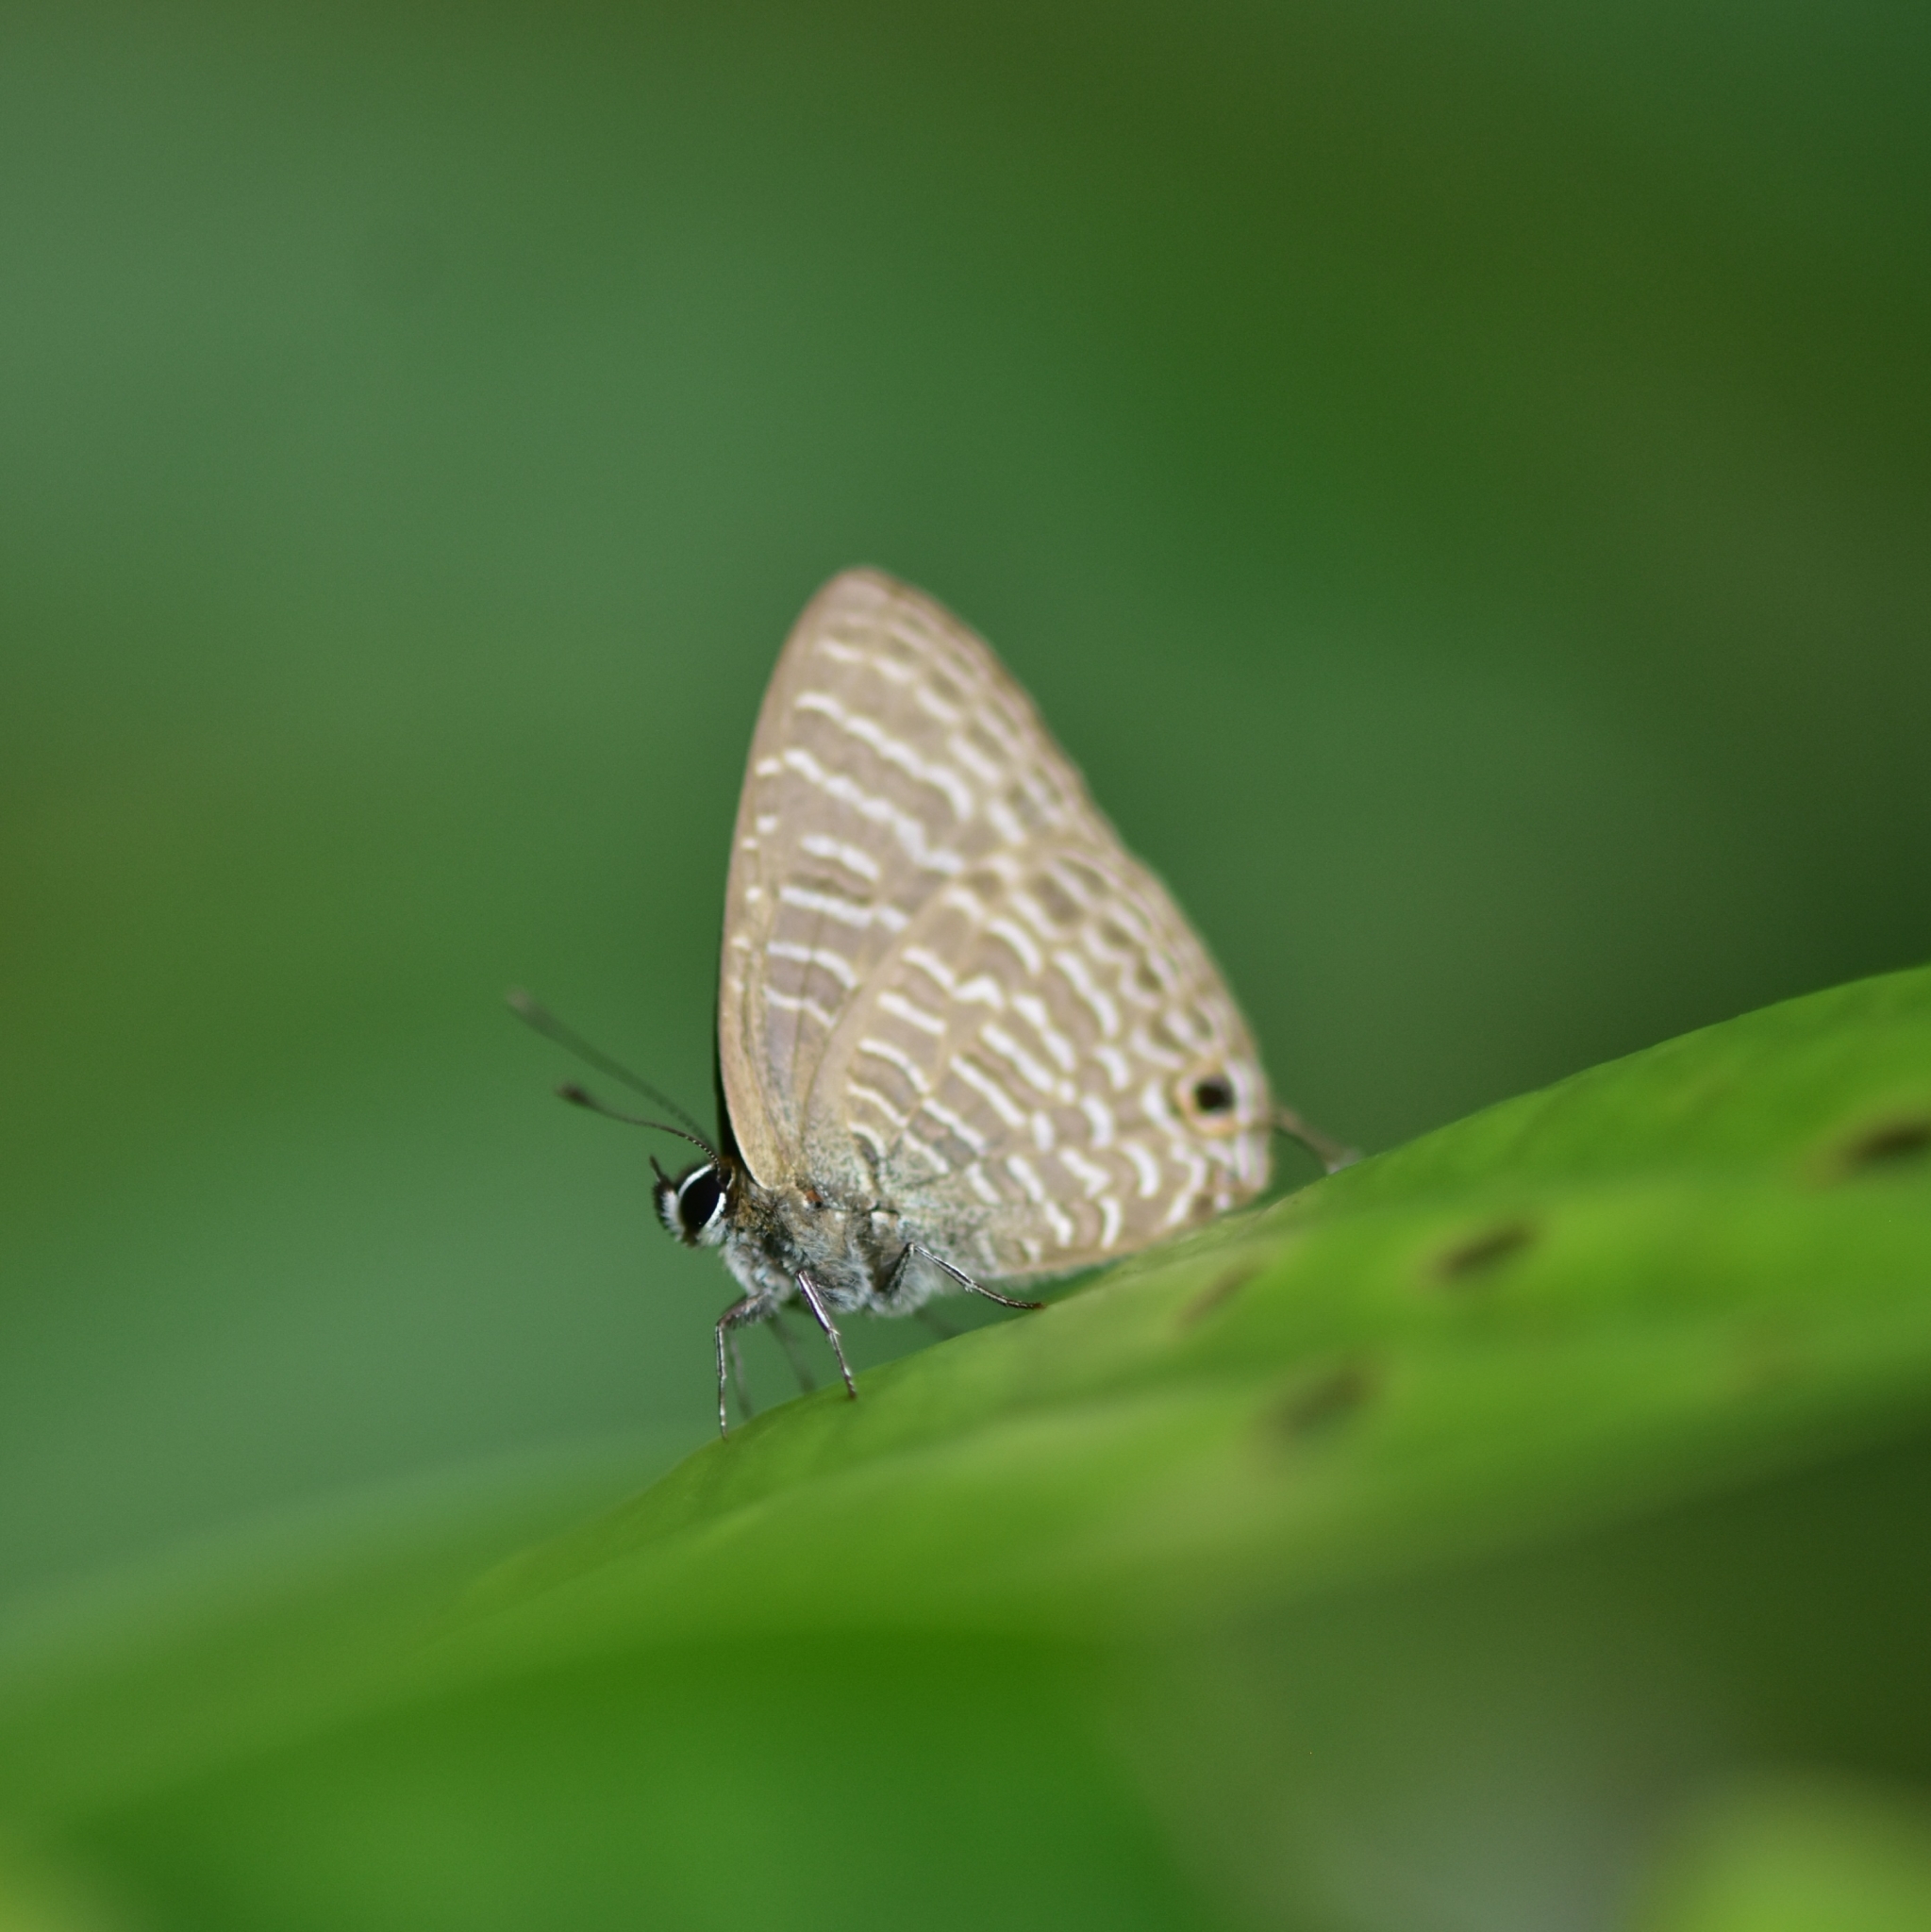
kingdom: Animalia
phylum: Arthropoda
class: Insecta
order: Lepidoptera
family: Lycaenidae
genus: Nacaduba
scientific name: Nacaduba kurava
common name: Transparent 6-line blue
